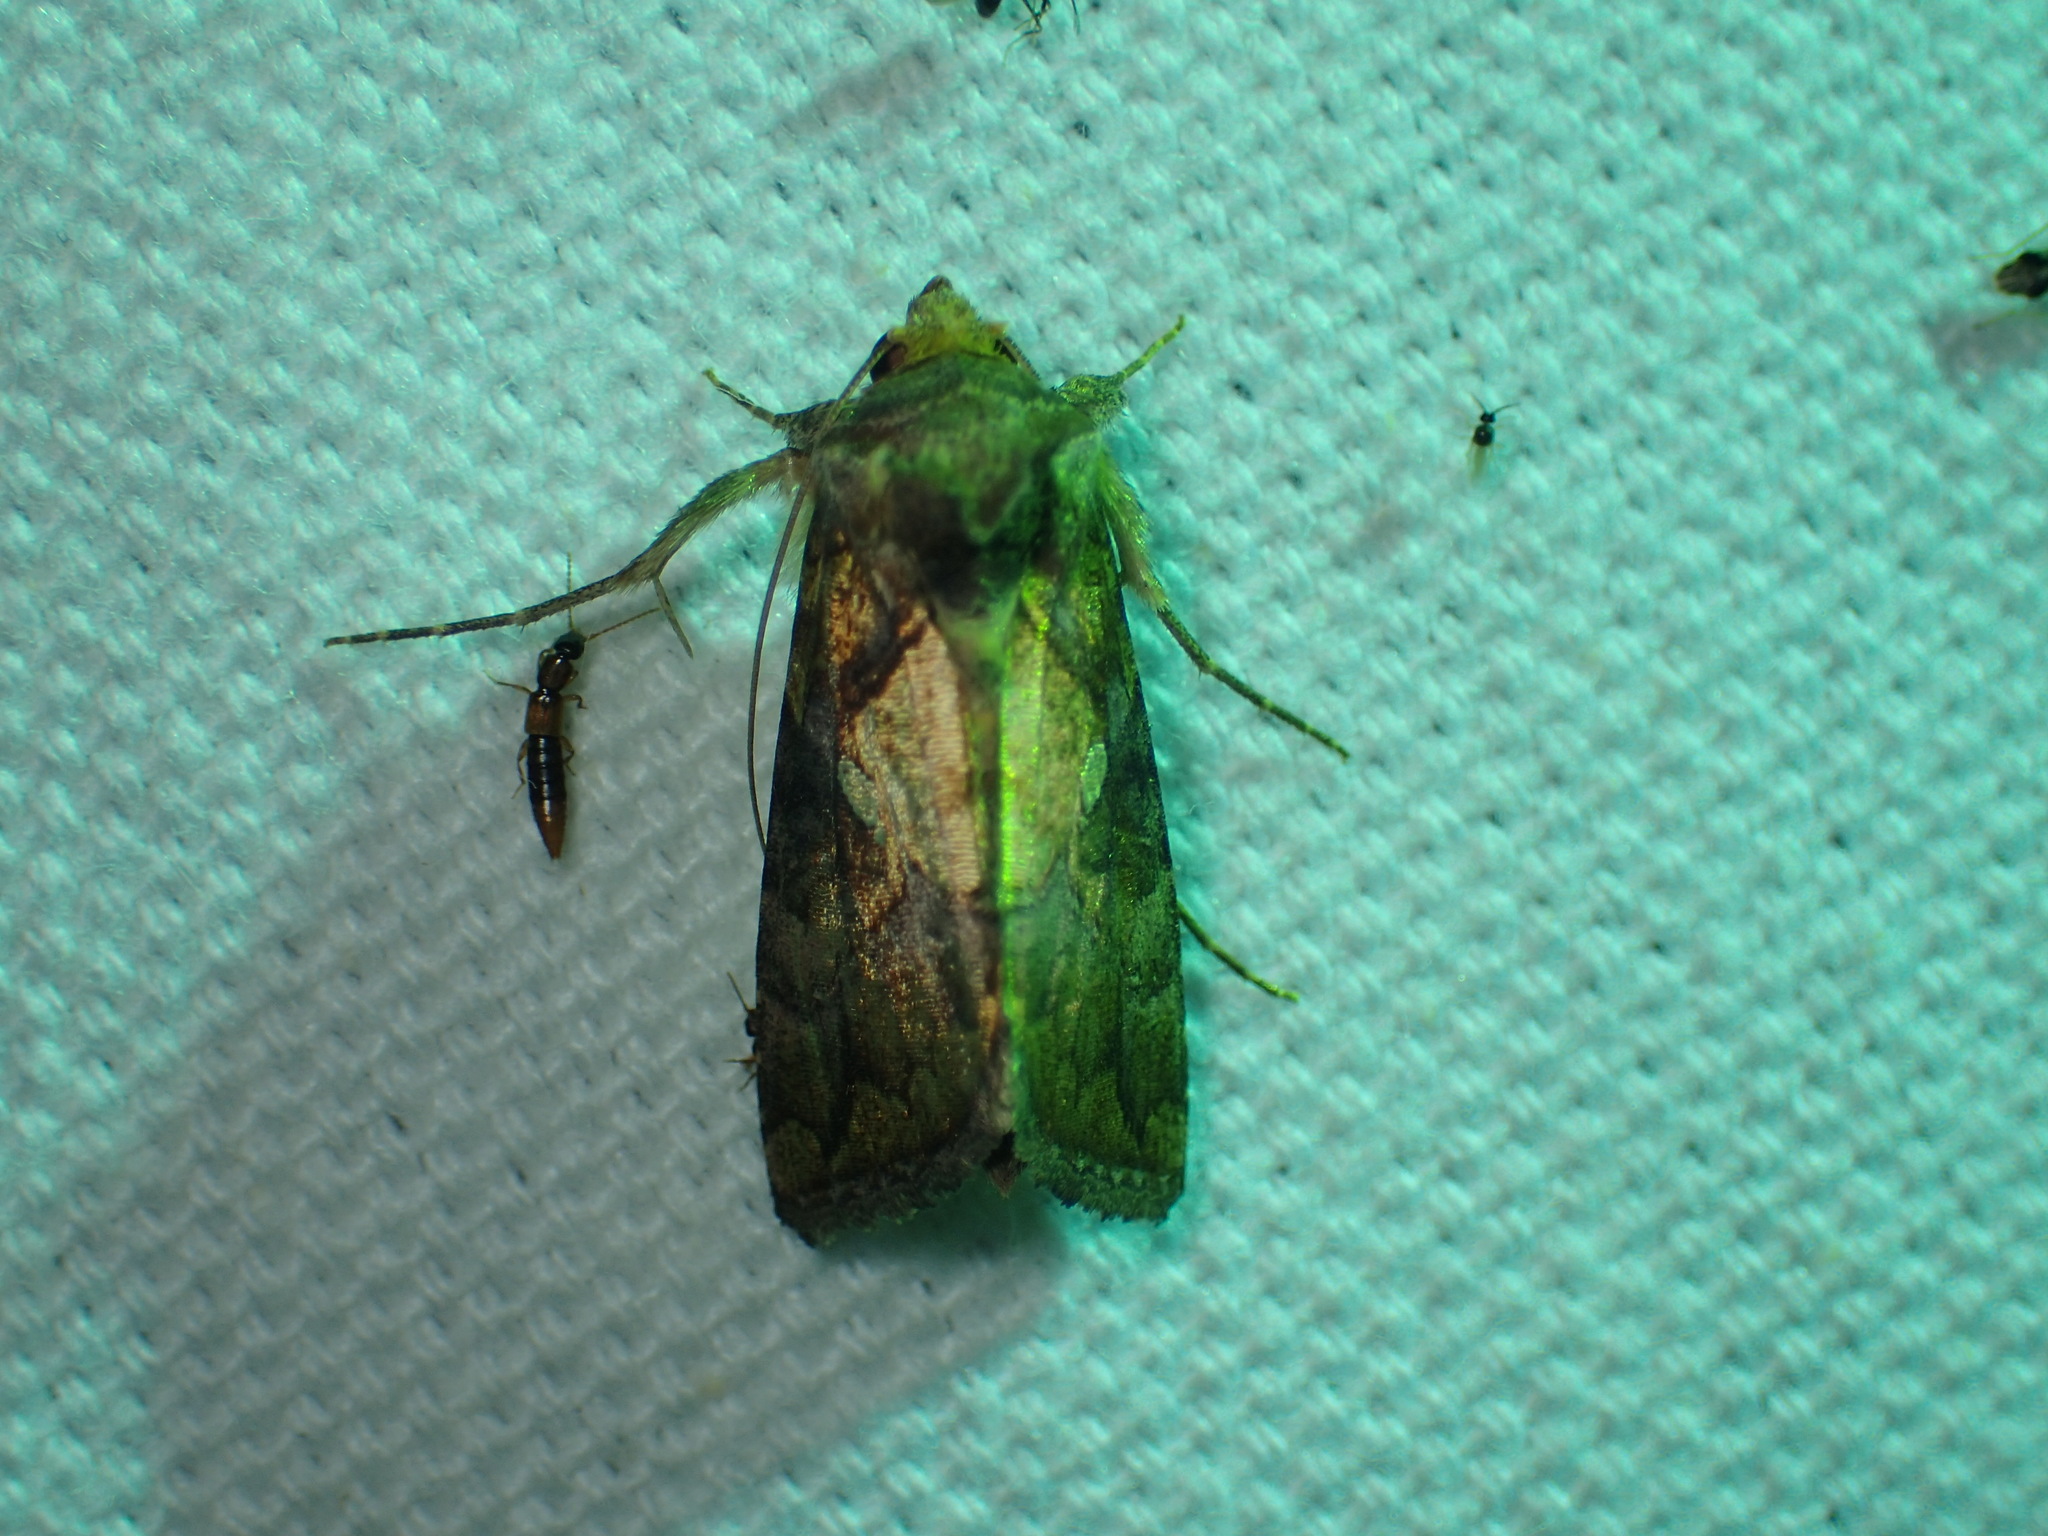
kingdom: Animalia
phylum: Arthropoda
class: Insecta
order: Lepidoptera
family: Noctuidae
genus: Argyrogramma
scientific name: Argyrogramma verruca
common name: Golden looper moth
